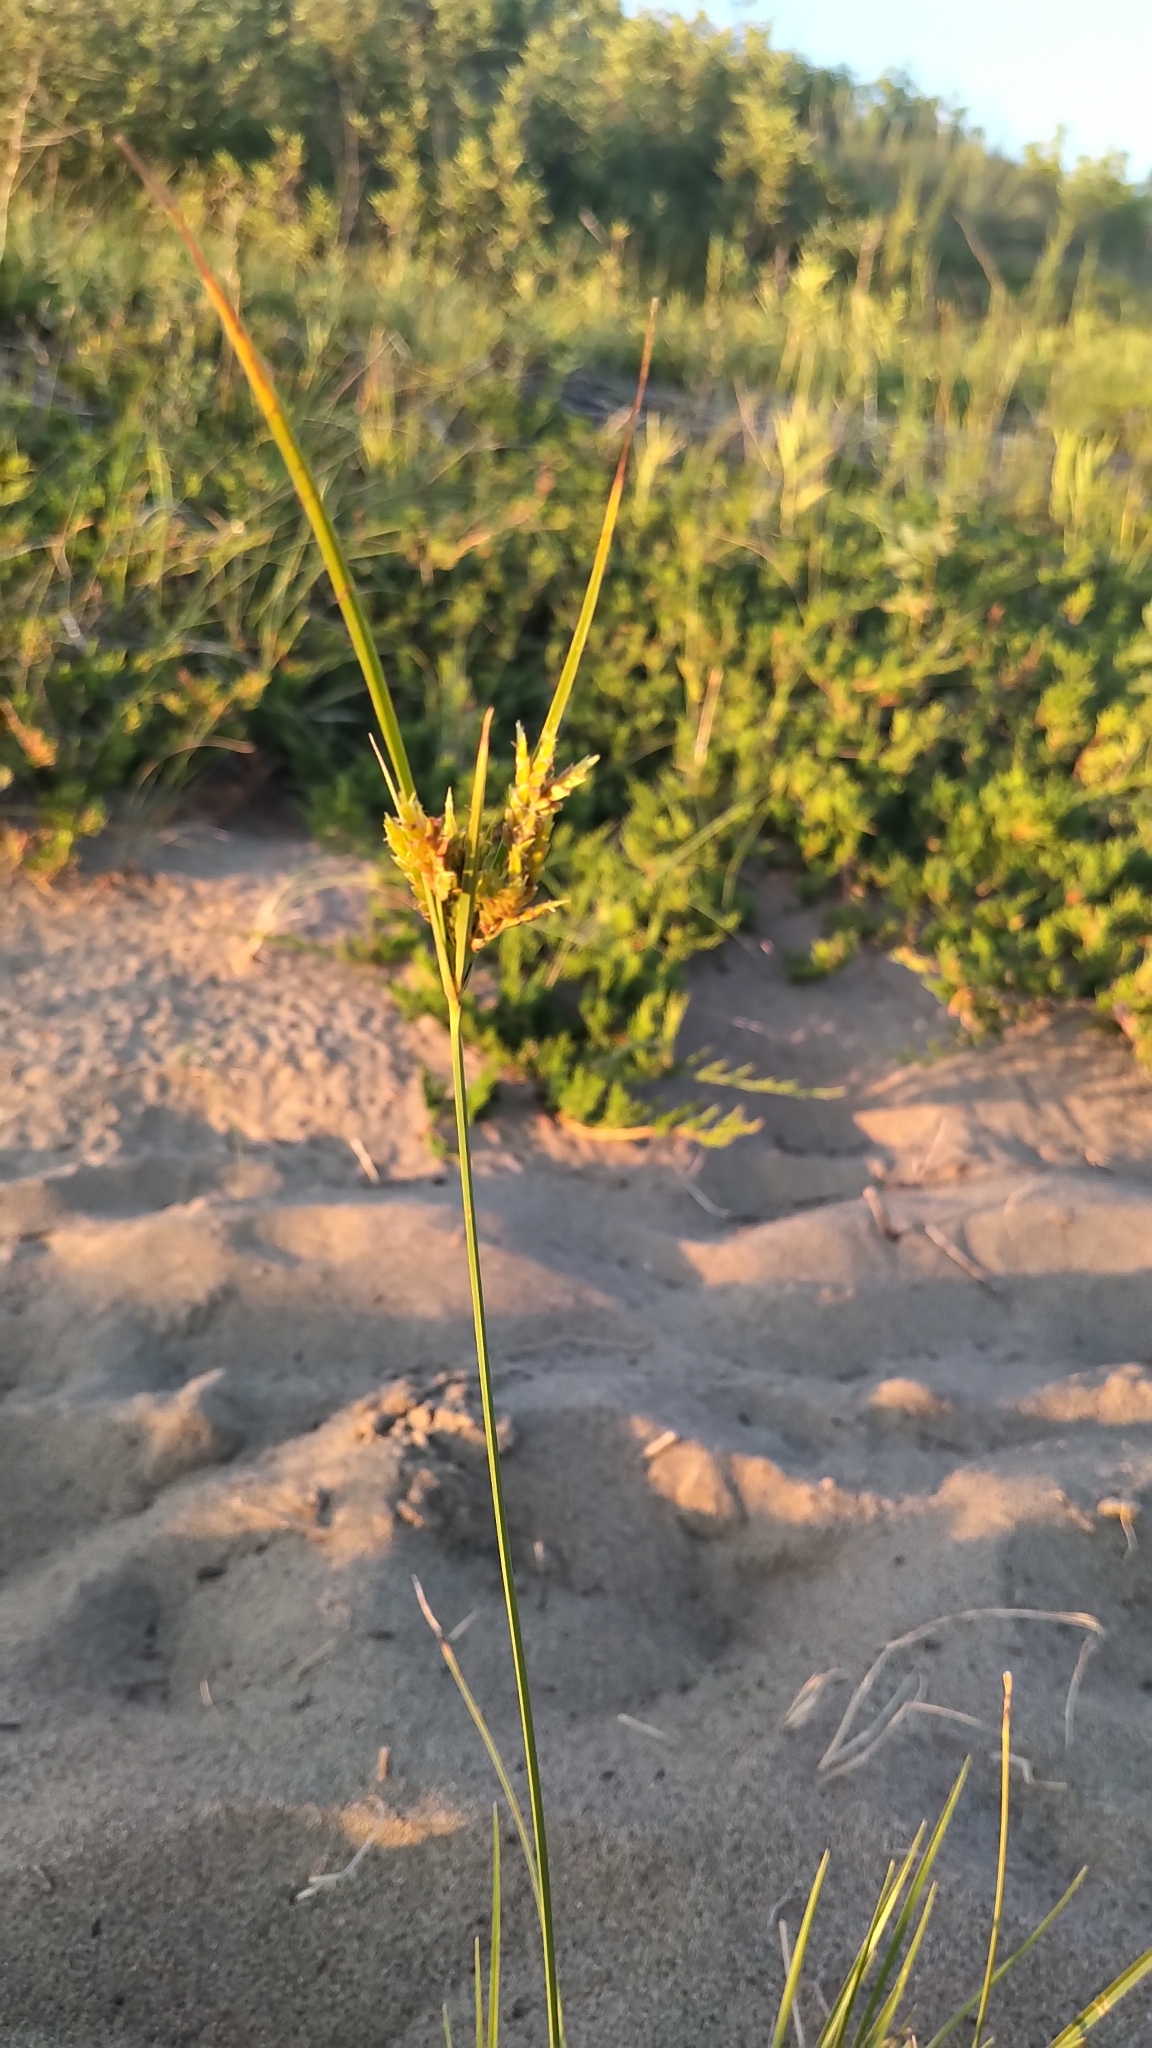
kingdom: Plantae
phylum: Tracheophyta
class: Liliopsida
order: Poales
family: Cyperaceae
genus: Cyperus
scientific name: Cyperus schweinitzii
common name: Schweinitz's cyperus
